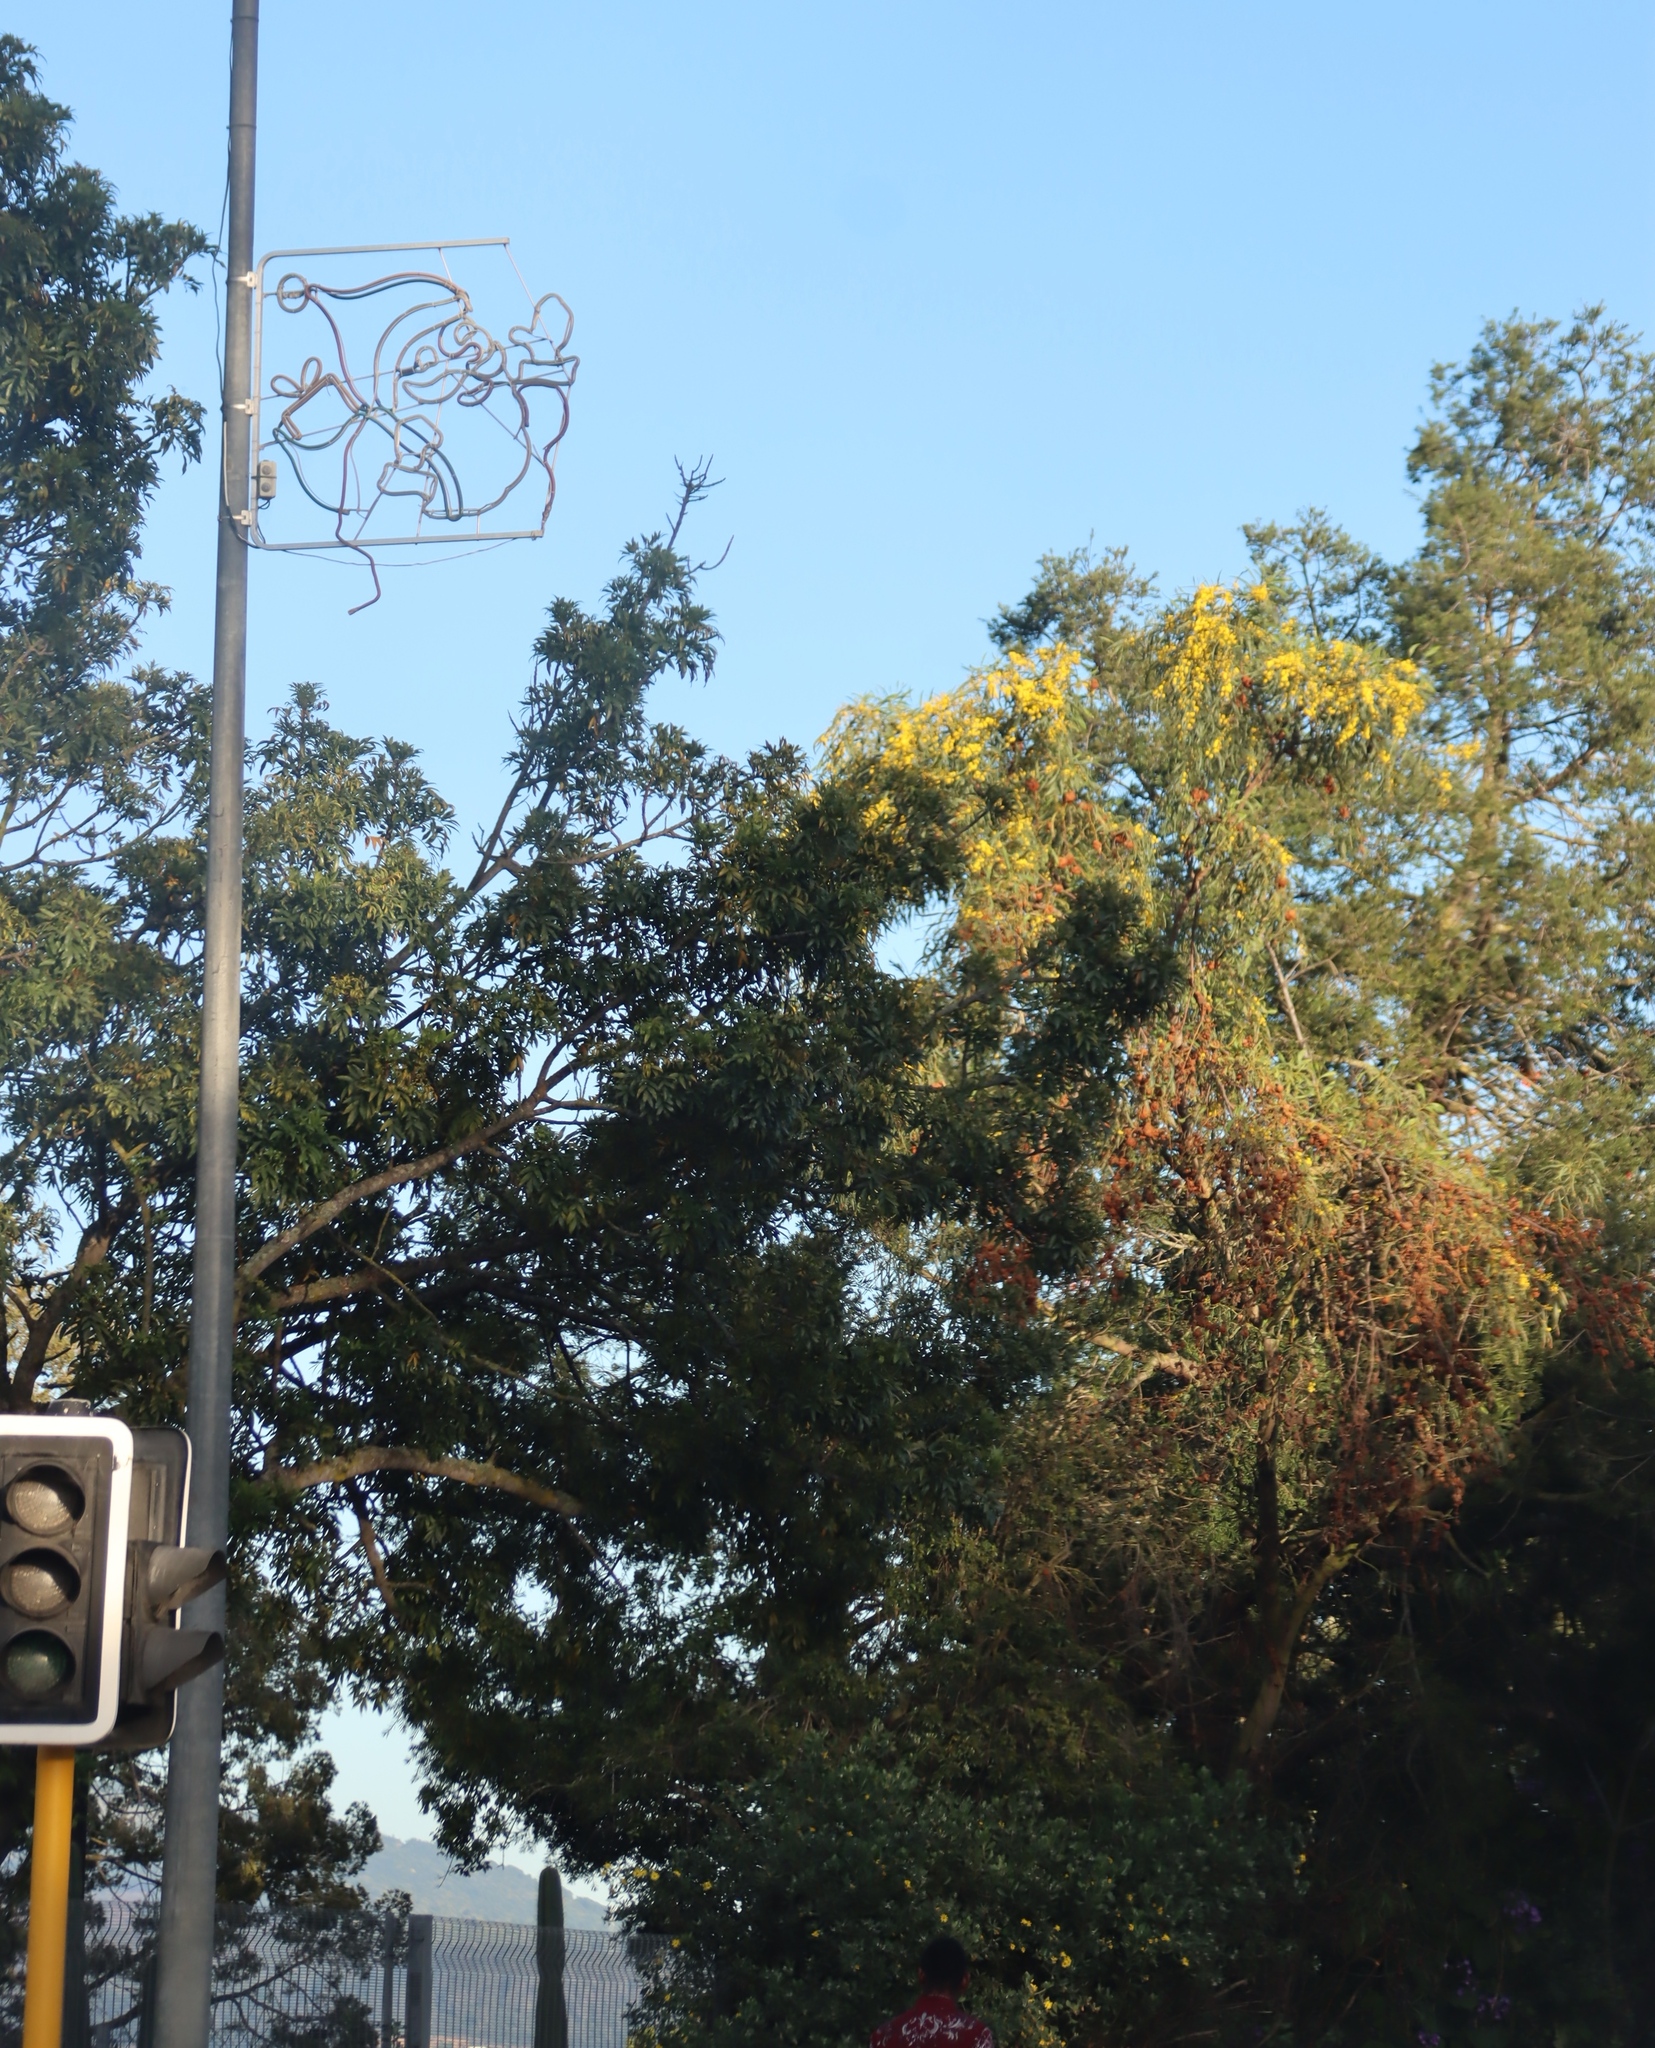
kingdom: Fungi
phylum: Basidiomycota
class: Pucciniomycetes
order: Pucciniales
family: Uromycladiaceae
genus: Uromycladium
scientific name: Uromycladium morrisii
